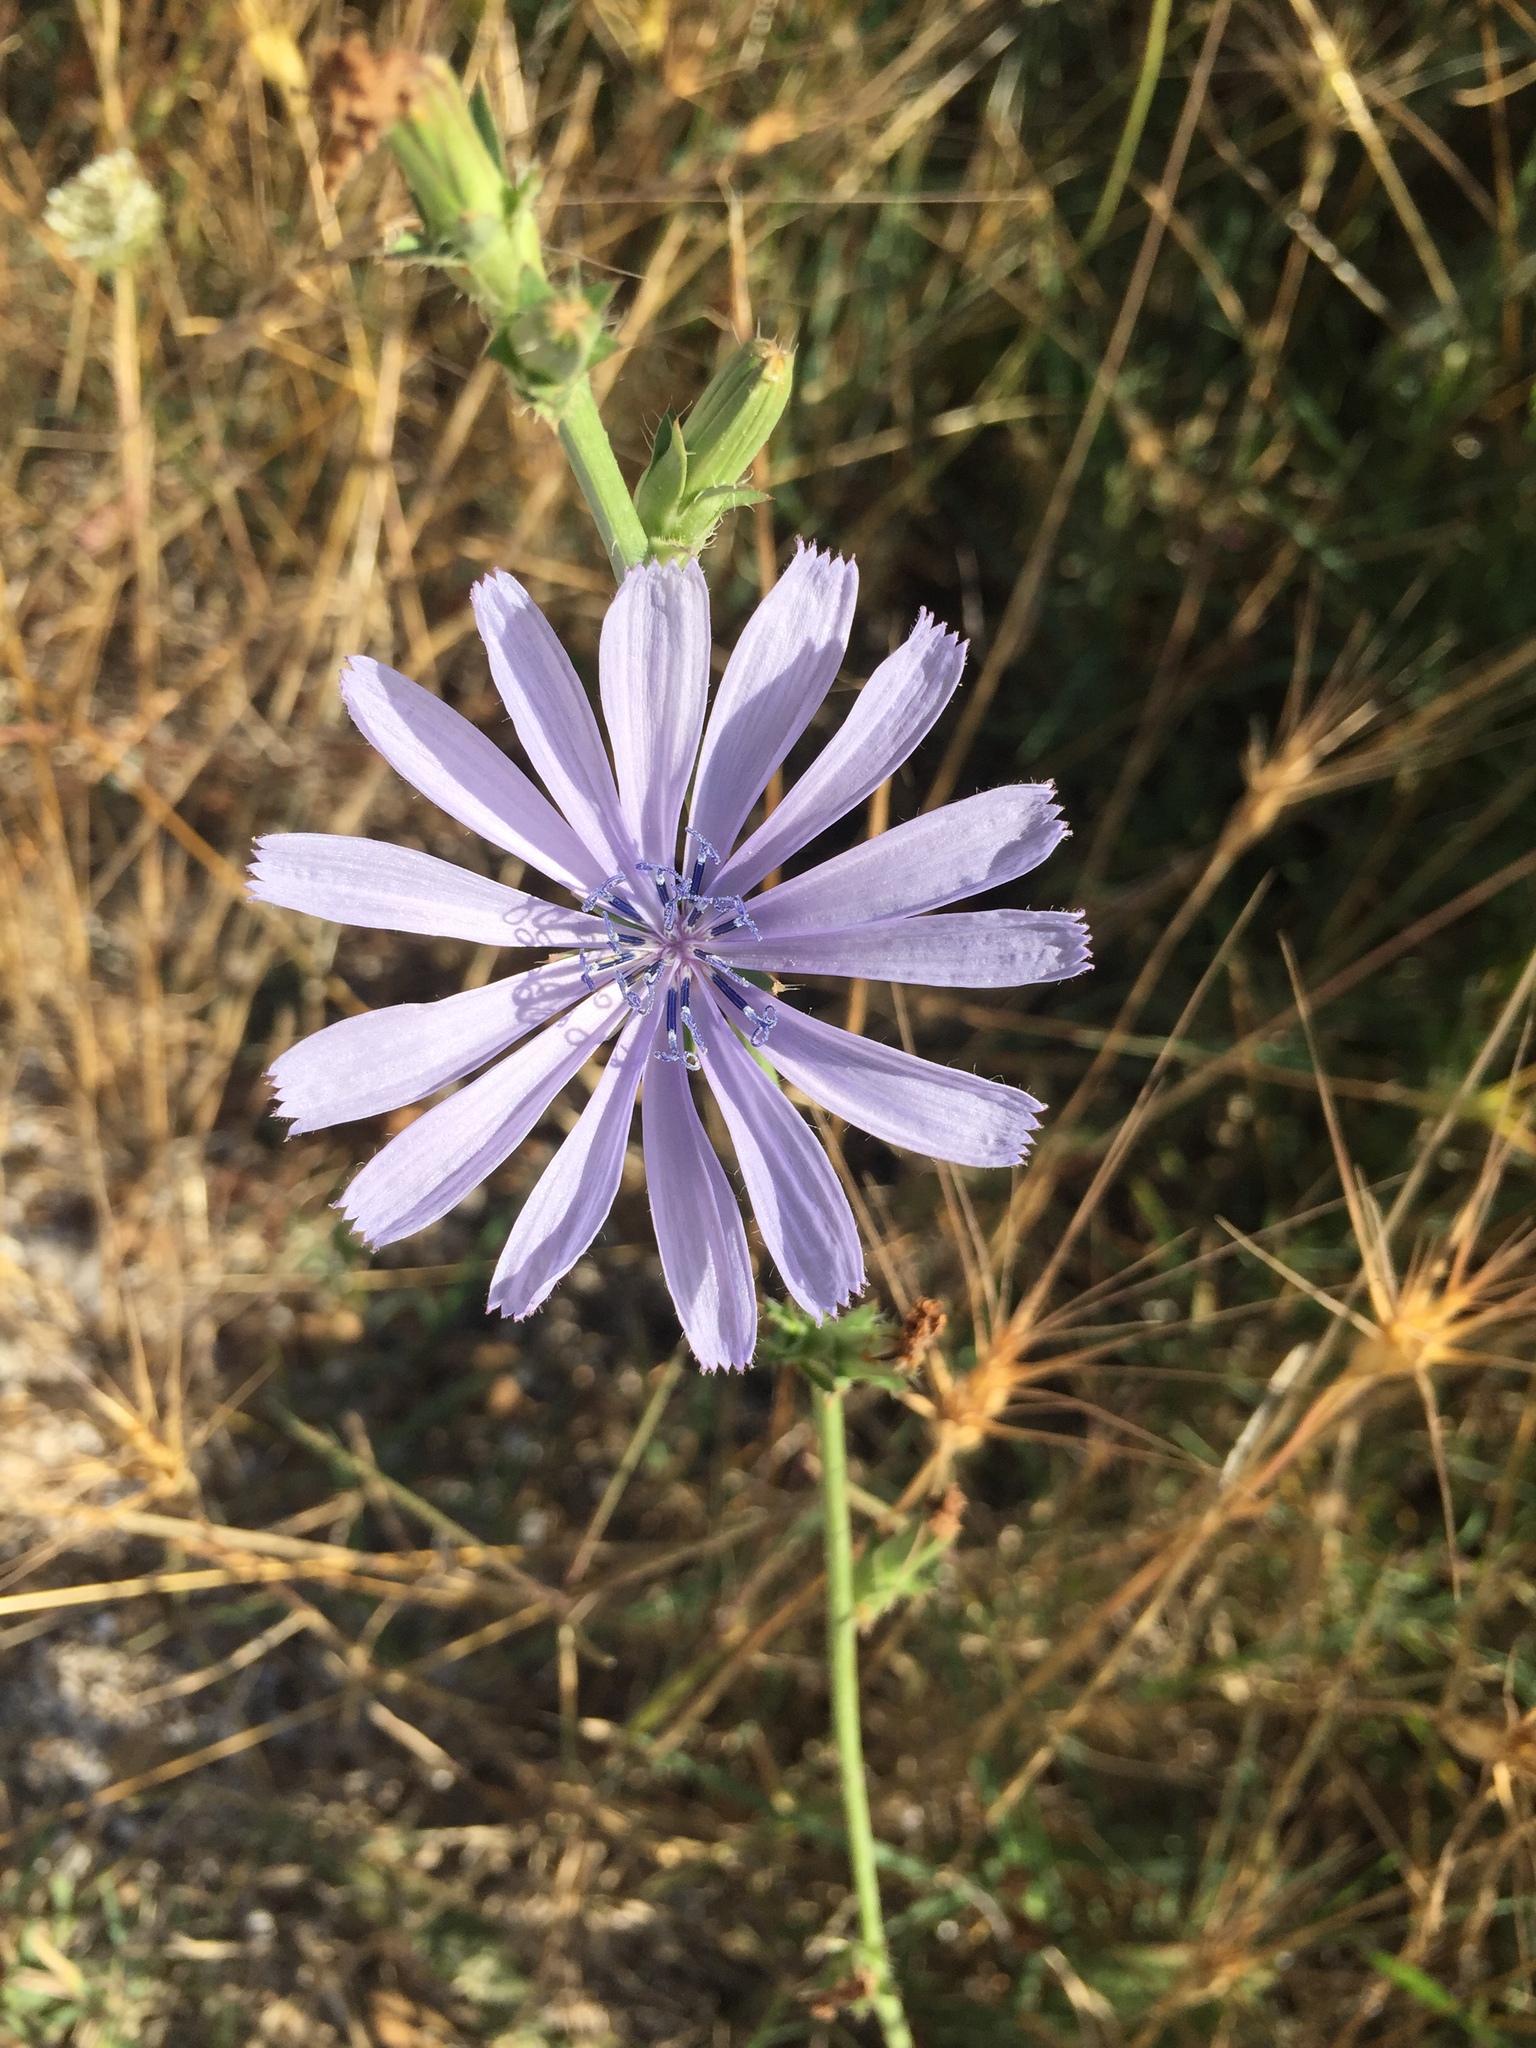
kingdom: Plantae
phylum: Tracheophyta
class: Magnoliopsida
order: Asterales
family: Asteraceae
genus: Cichorium
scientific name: Cichorium intybus
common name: Chicory
